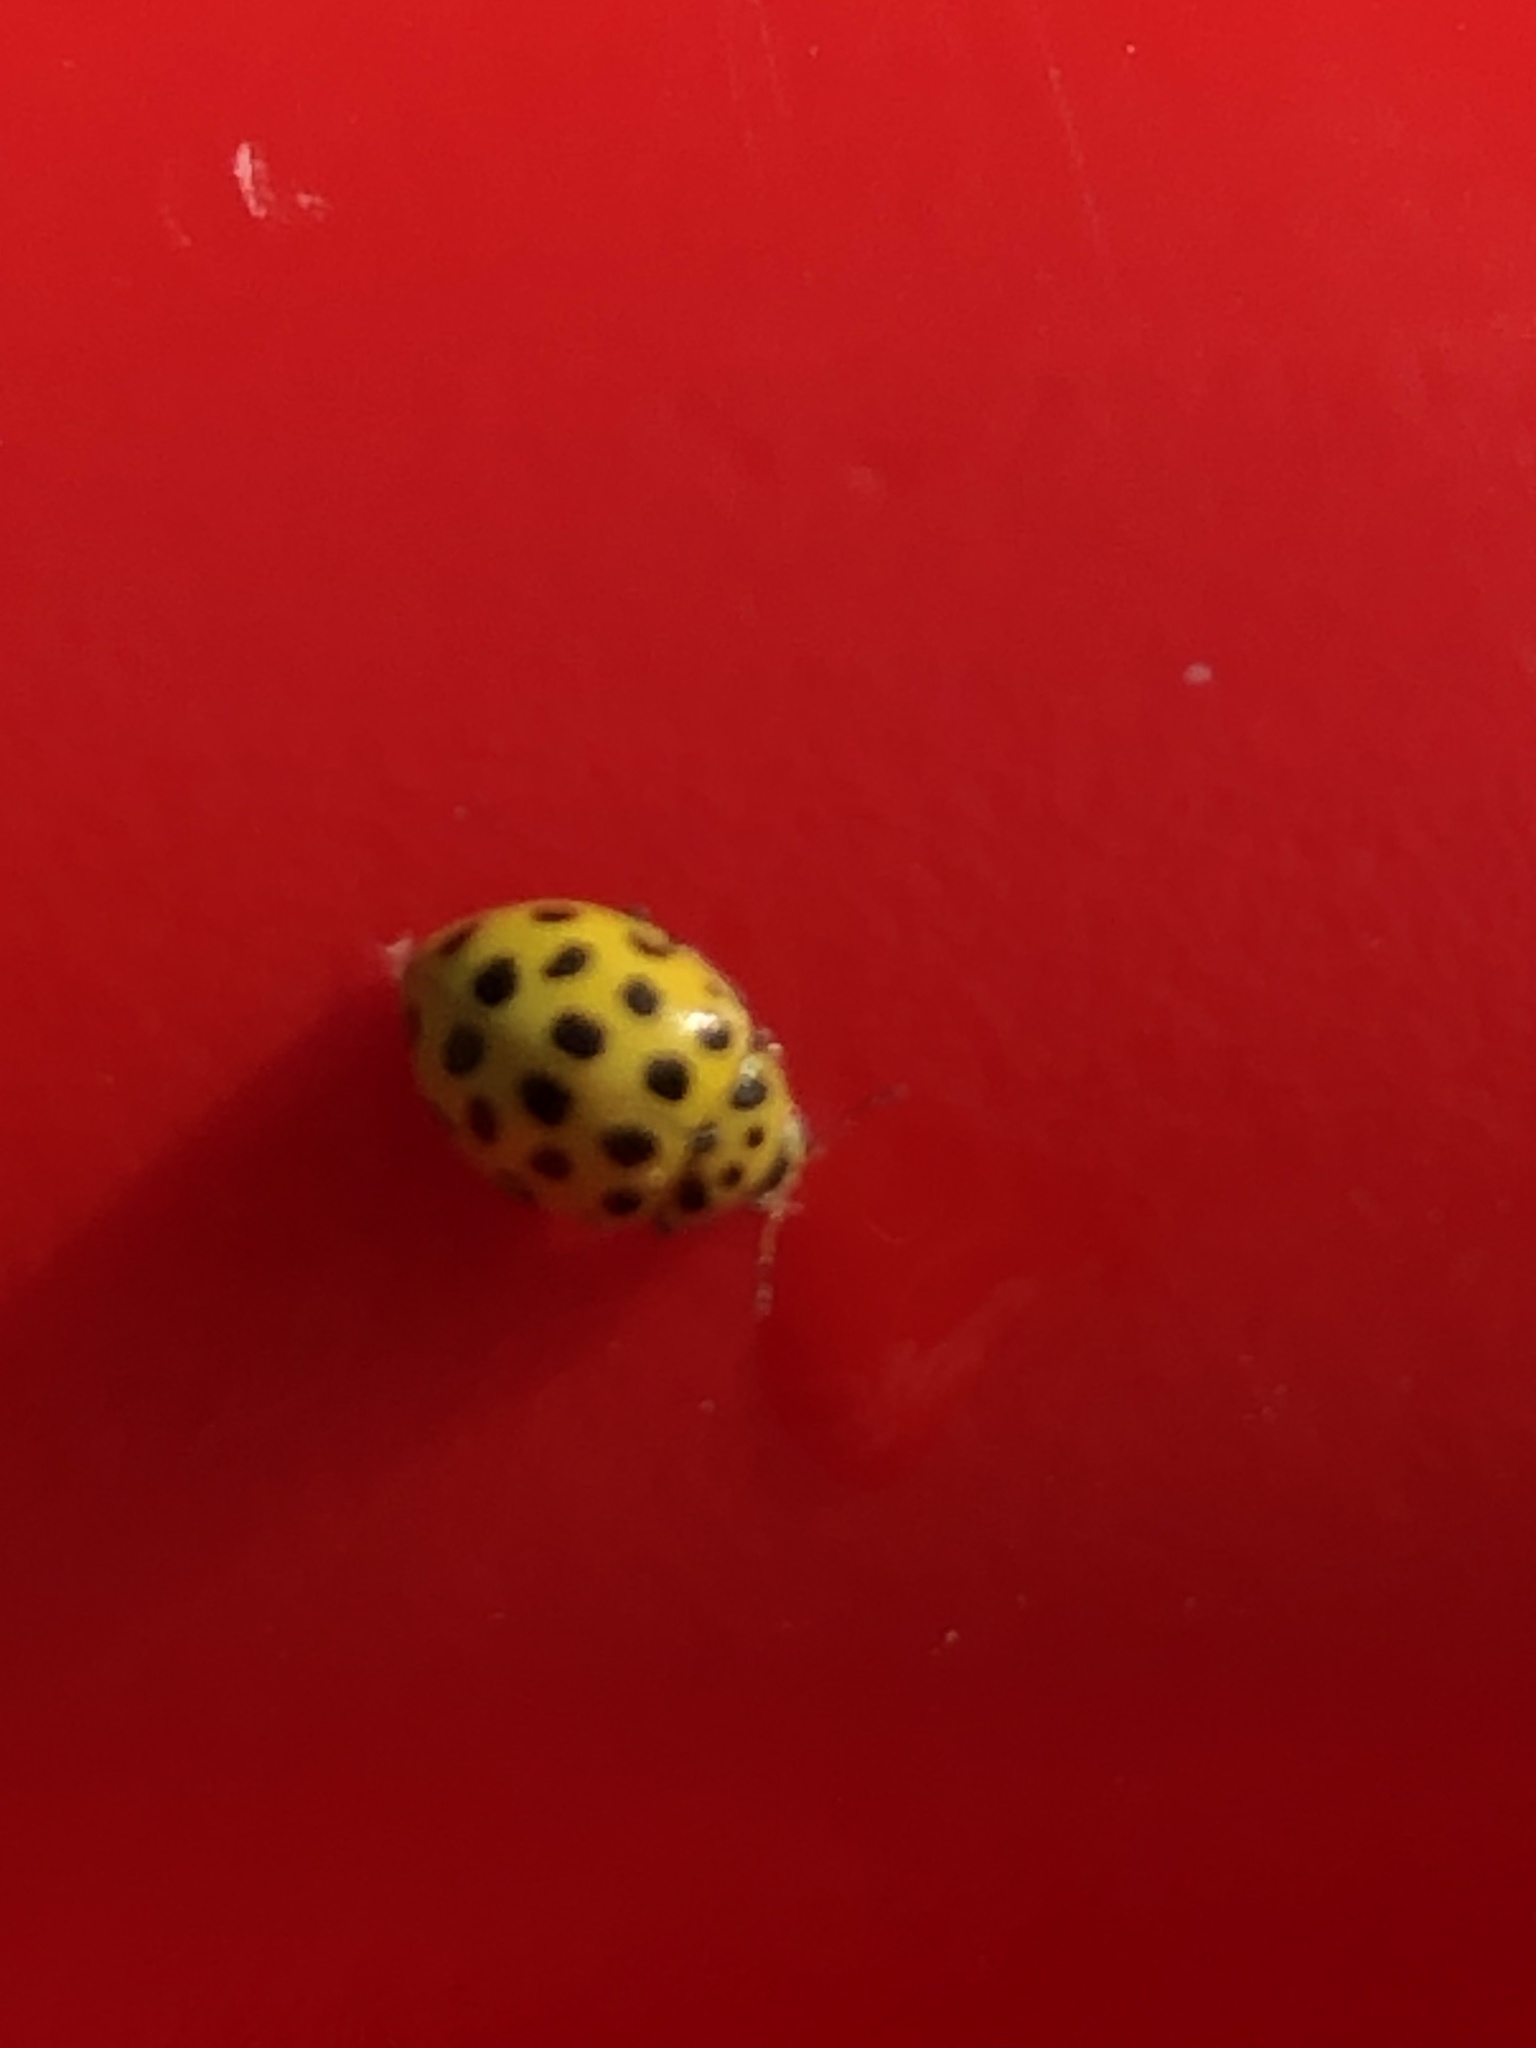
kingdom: Animalia
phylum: Arthropoda
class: Insecta
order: Coleoptera
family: Coccinellidae
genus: Psyllobora
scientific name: Psyllobora vigintiduopunctata
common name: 22-spot ladybird
